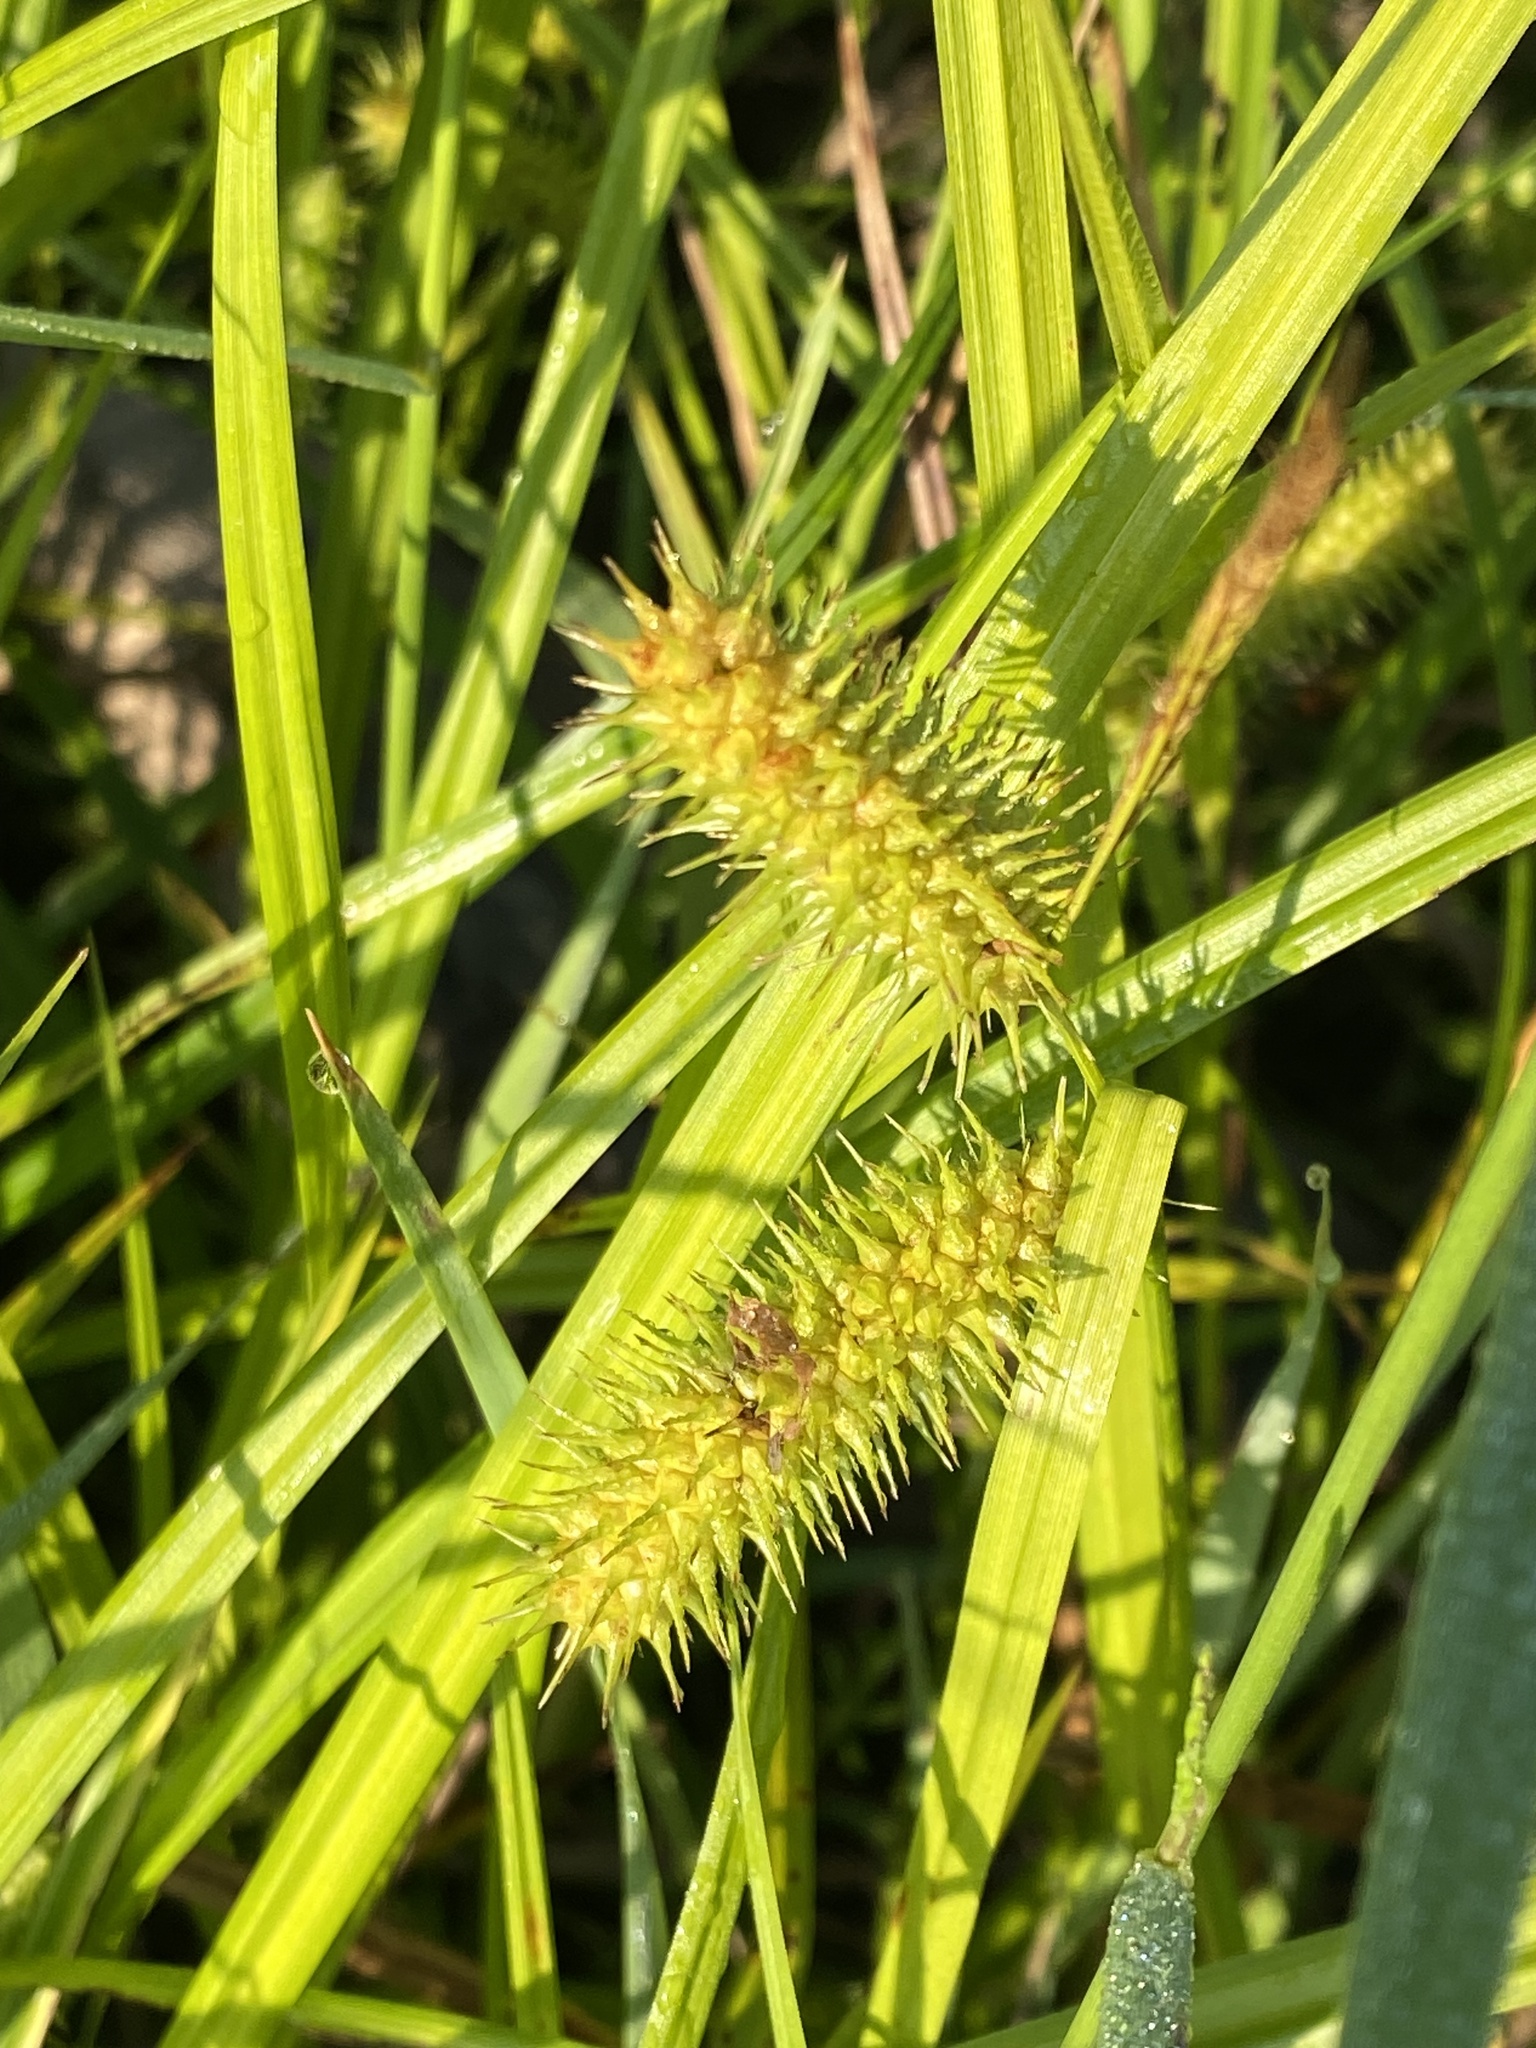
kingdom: Plantae
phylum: Tracheophyta
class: Liliopsida
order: Poales
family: Cyperaceae
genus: Carex
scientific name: Carex lurida
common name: Sallow sedge
